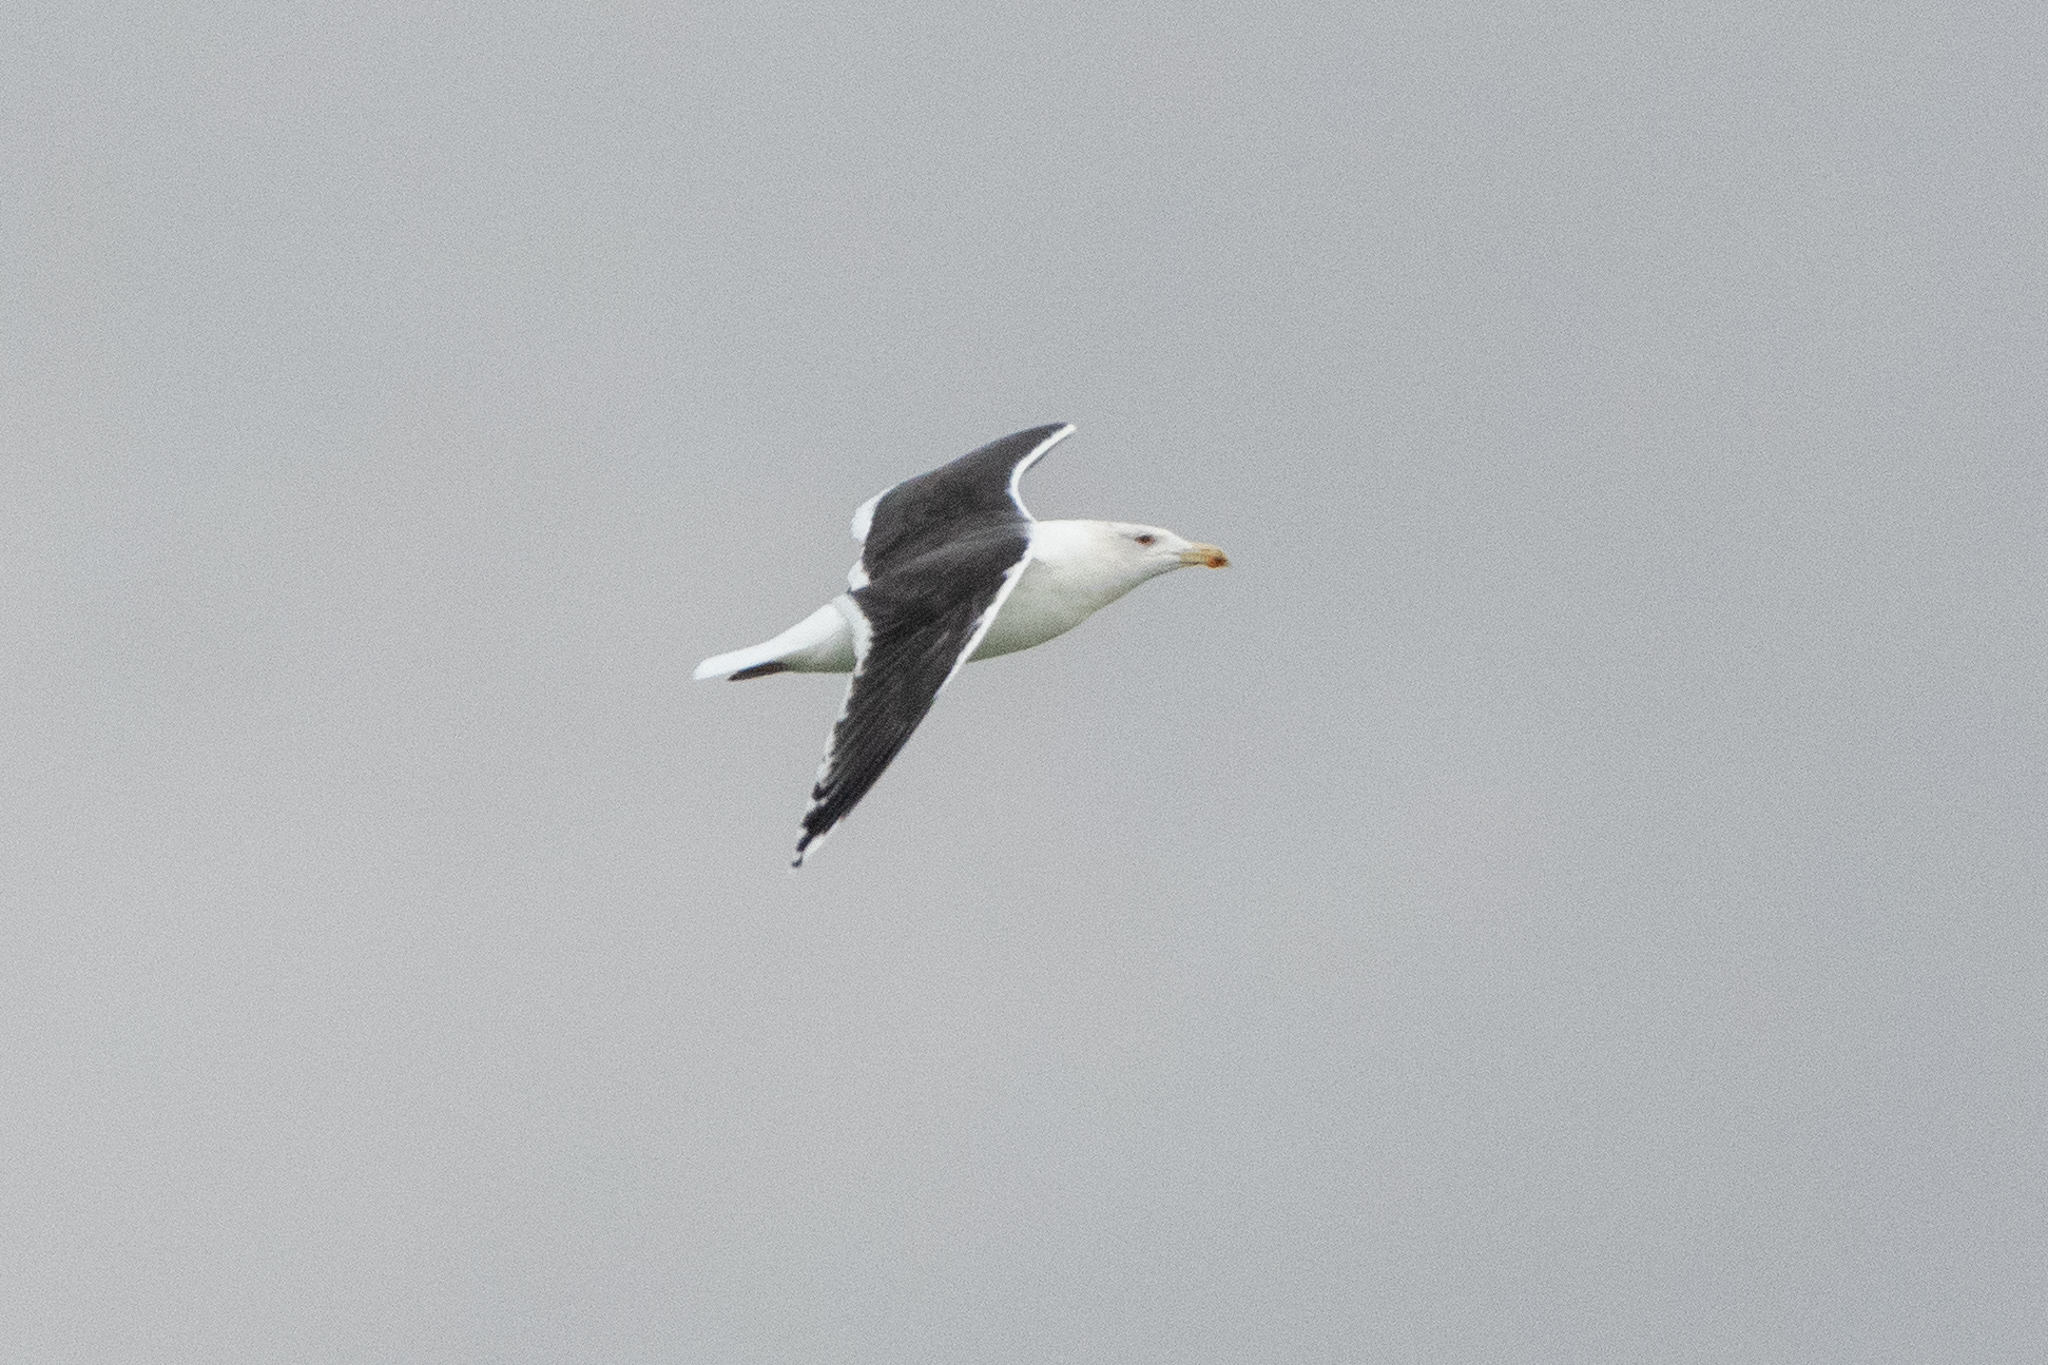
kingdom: Animalia
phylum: Chordata
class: Aves
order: Charadriiformes
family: Laridae
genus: Larus
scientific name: Larus marinus
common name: Great black-backed gull
